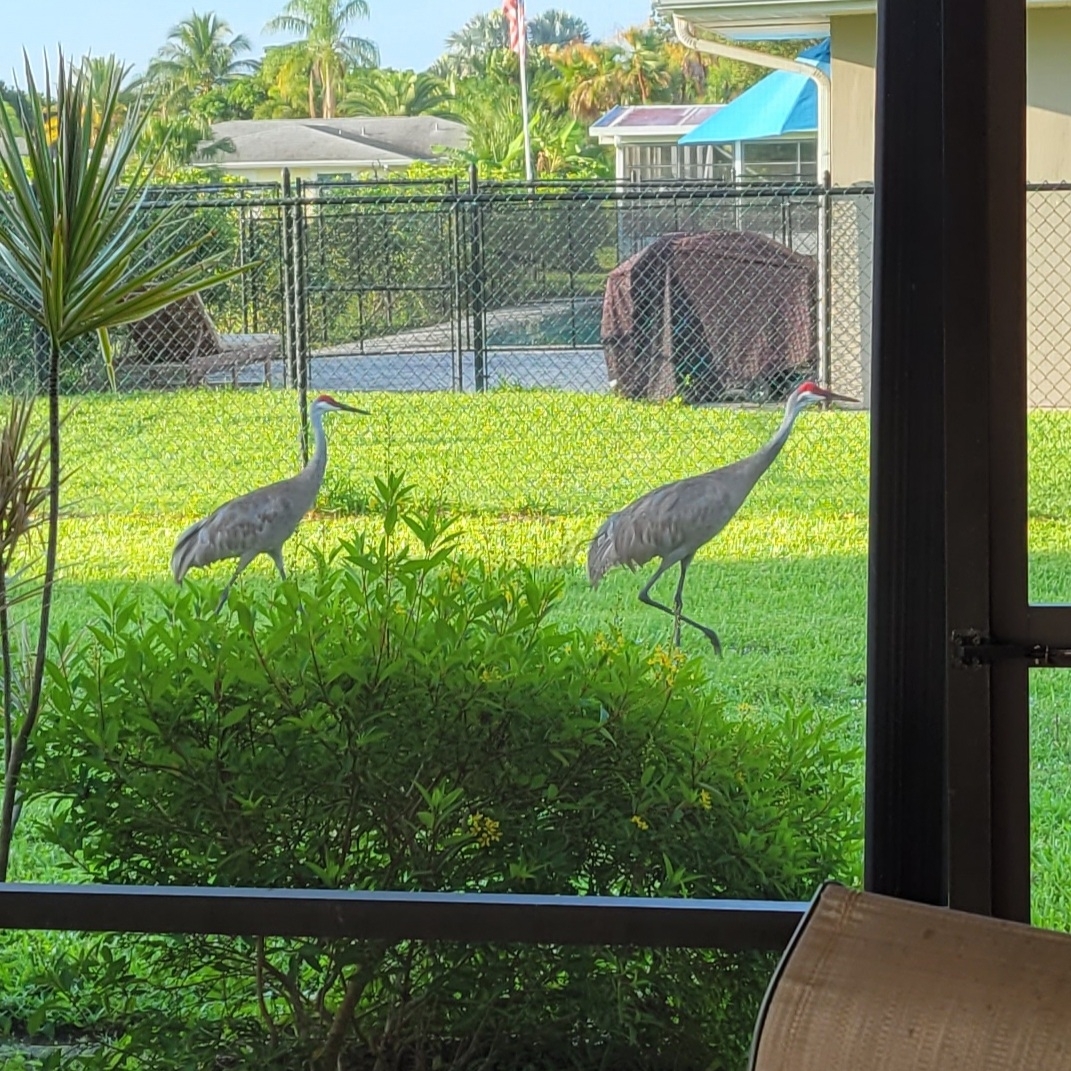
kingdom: Animalia
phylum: Chordata
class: Aves
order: Gruiformes
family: Gruidae
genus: Grus
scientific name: Grus canadensis
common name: Sandhill crane
